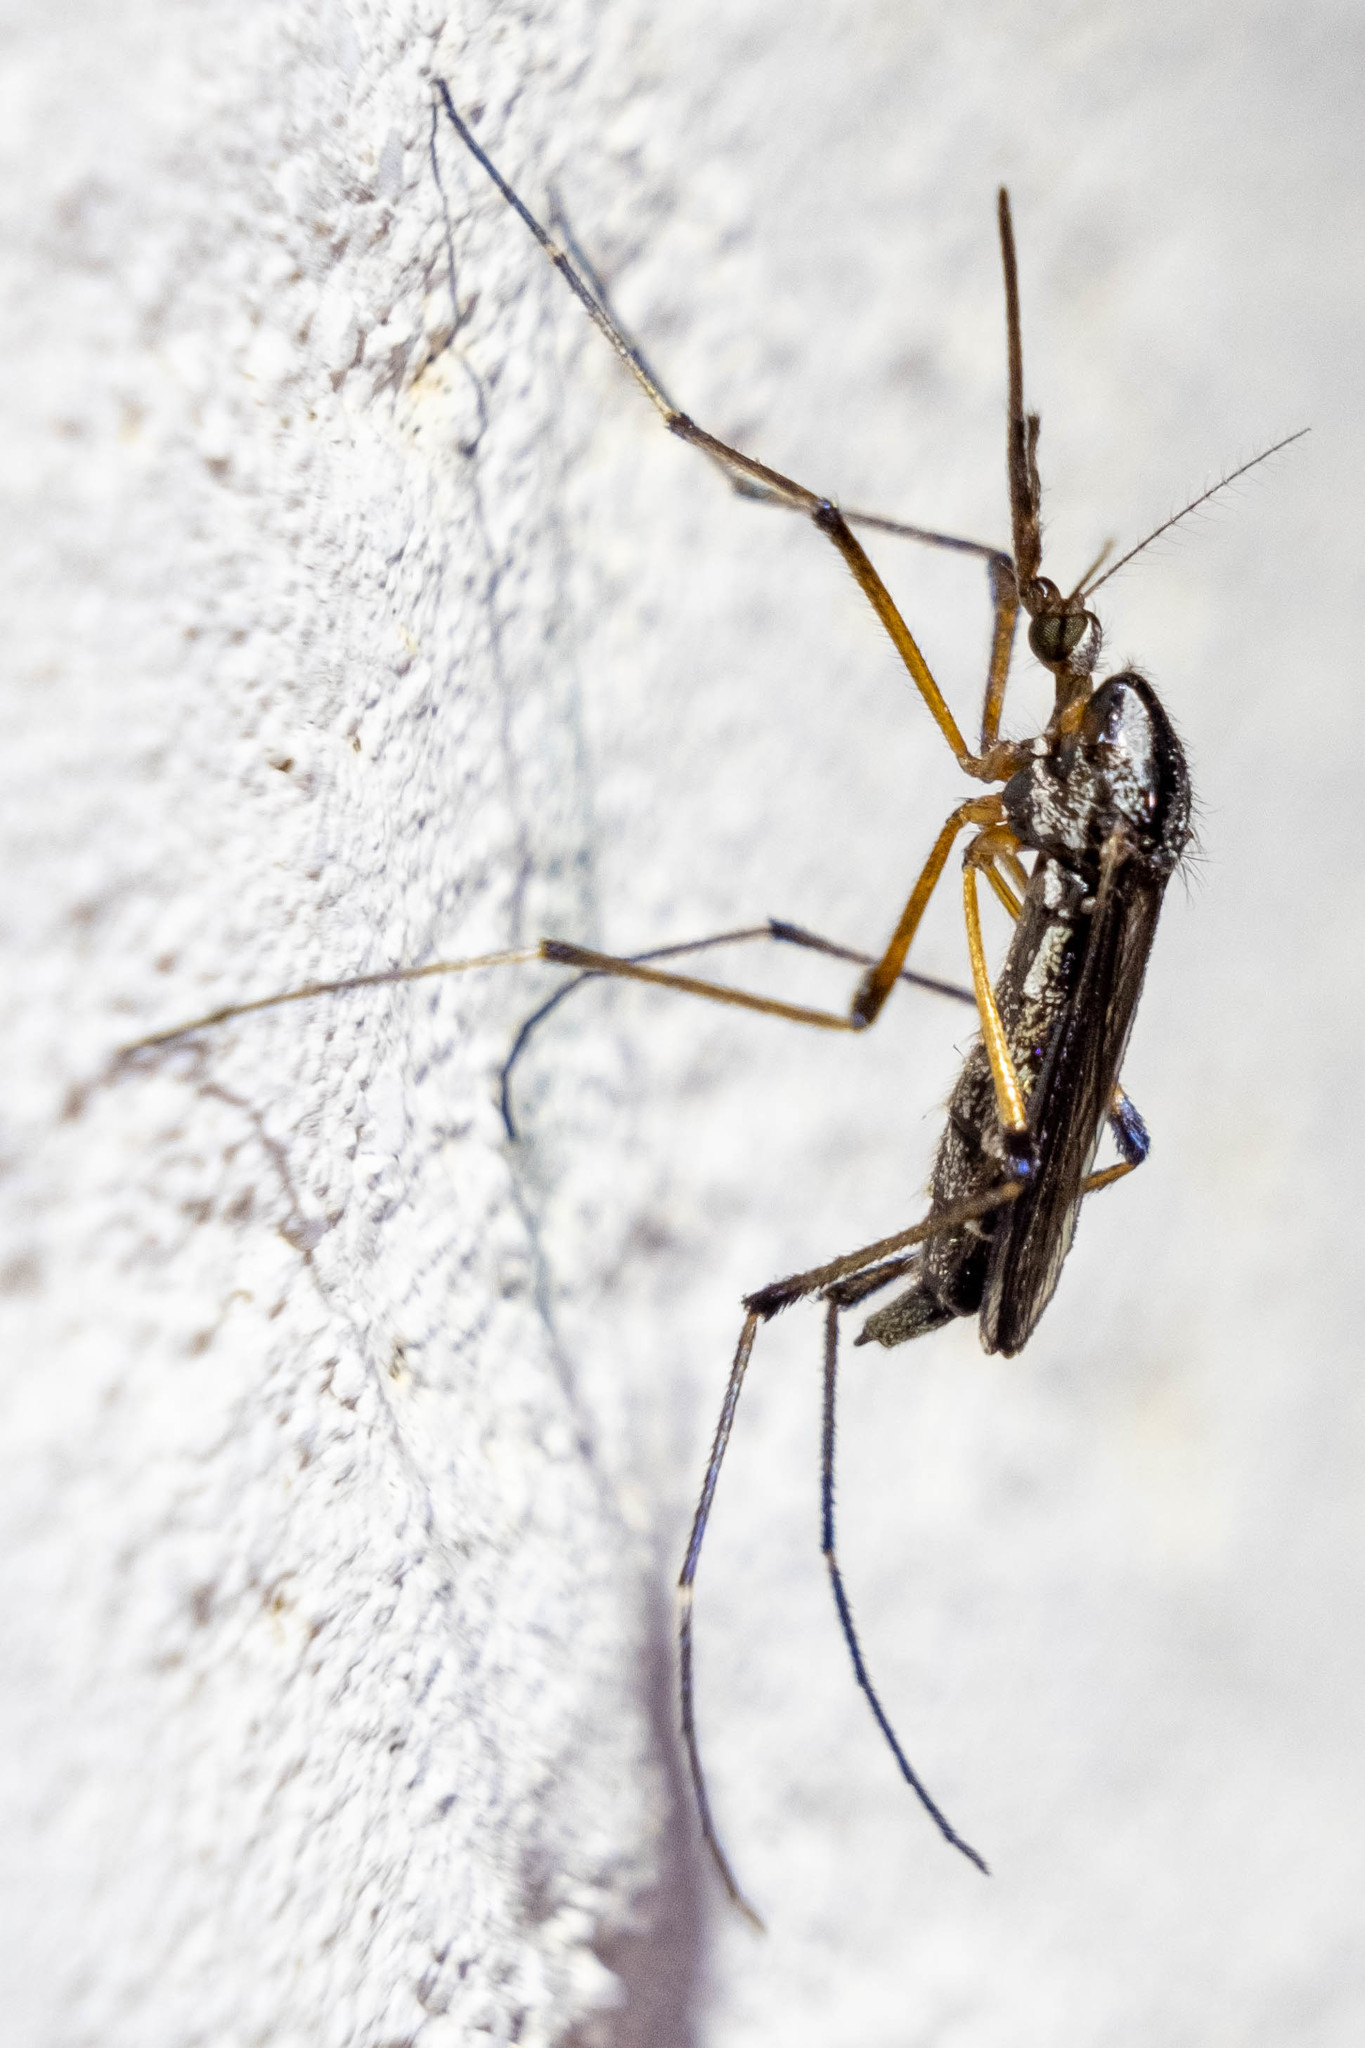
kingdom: Animalia
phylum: Arthropoda
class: Insecta
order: Diptera
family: Culicidae
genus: Psorophora
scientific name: Psorophora howardii
